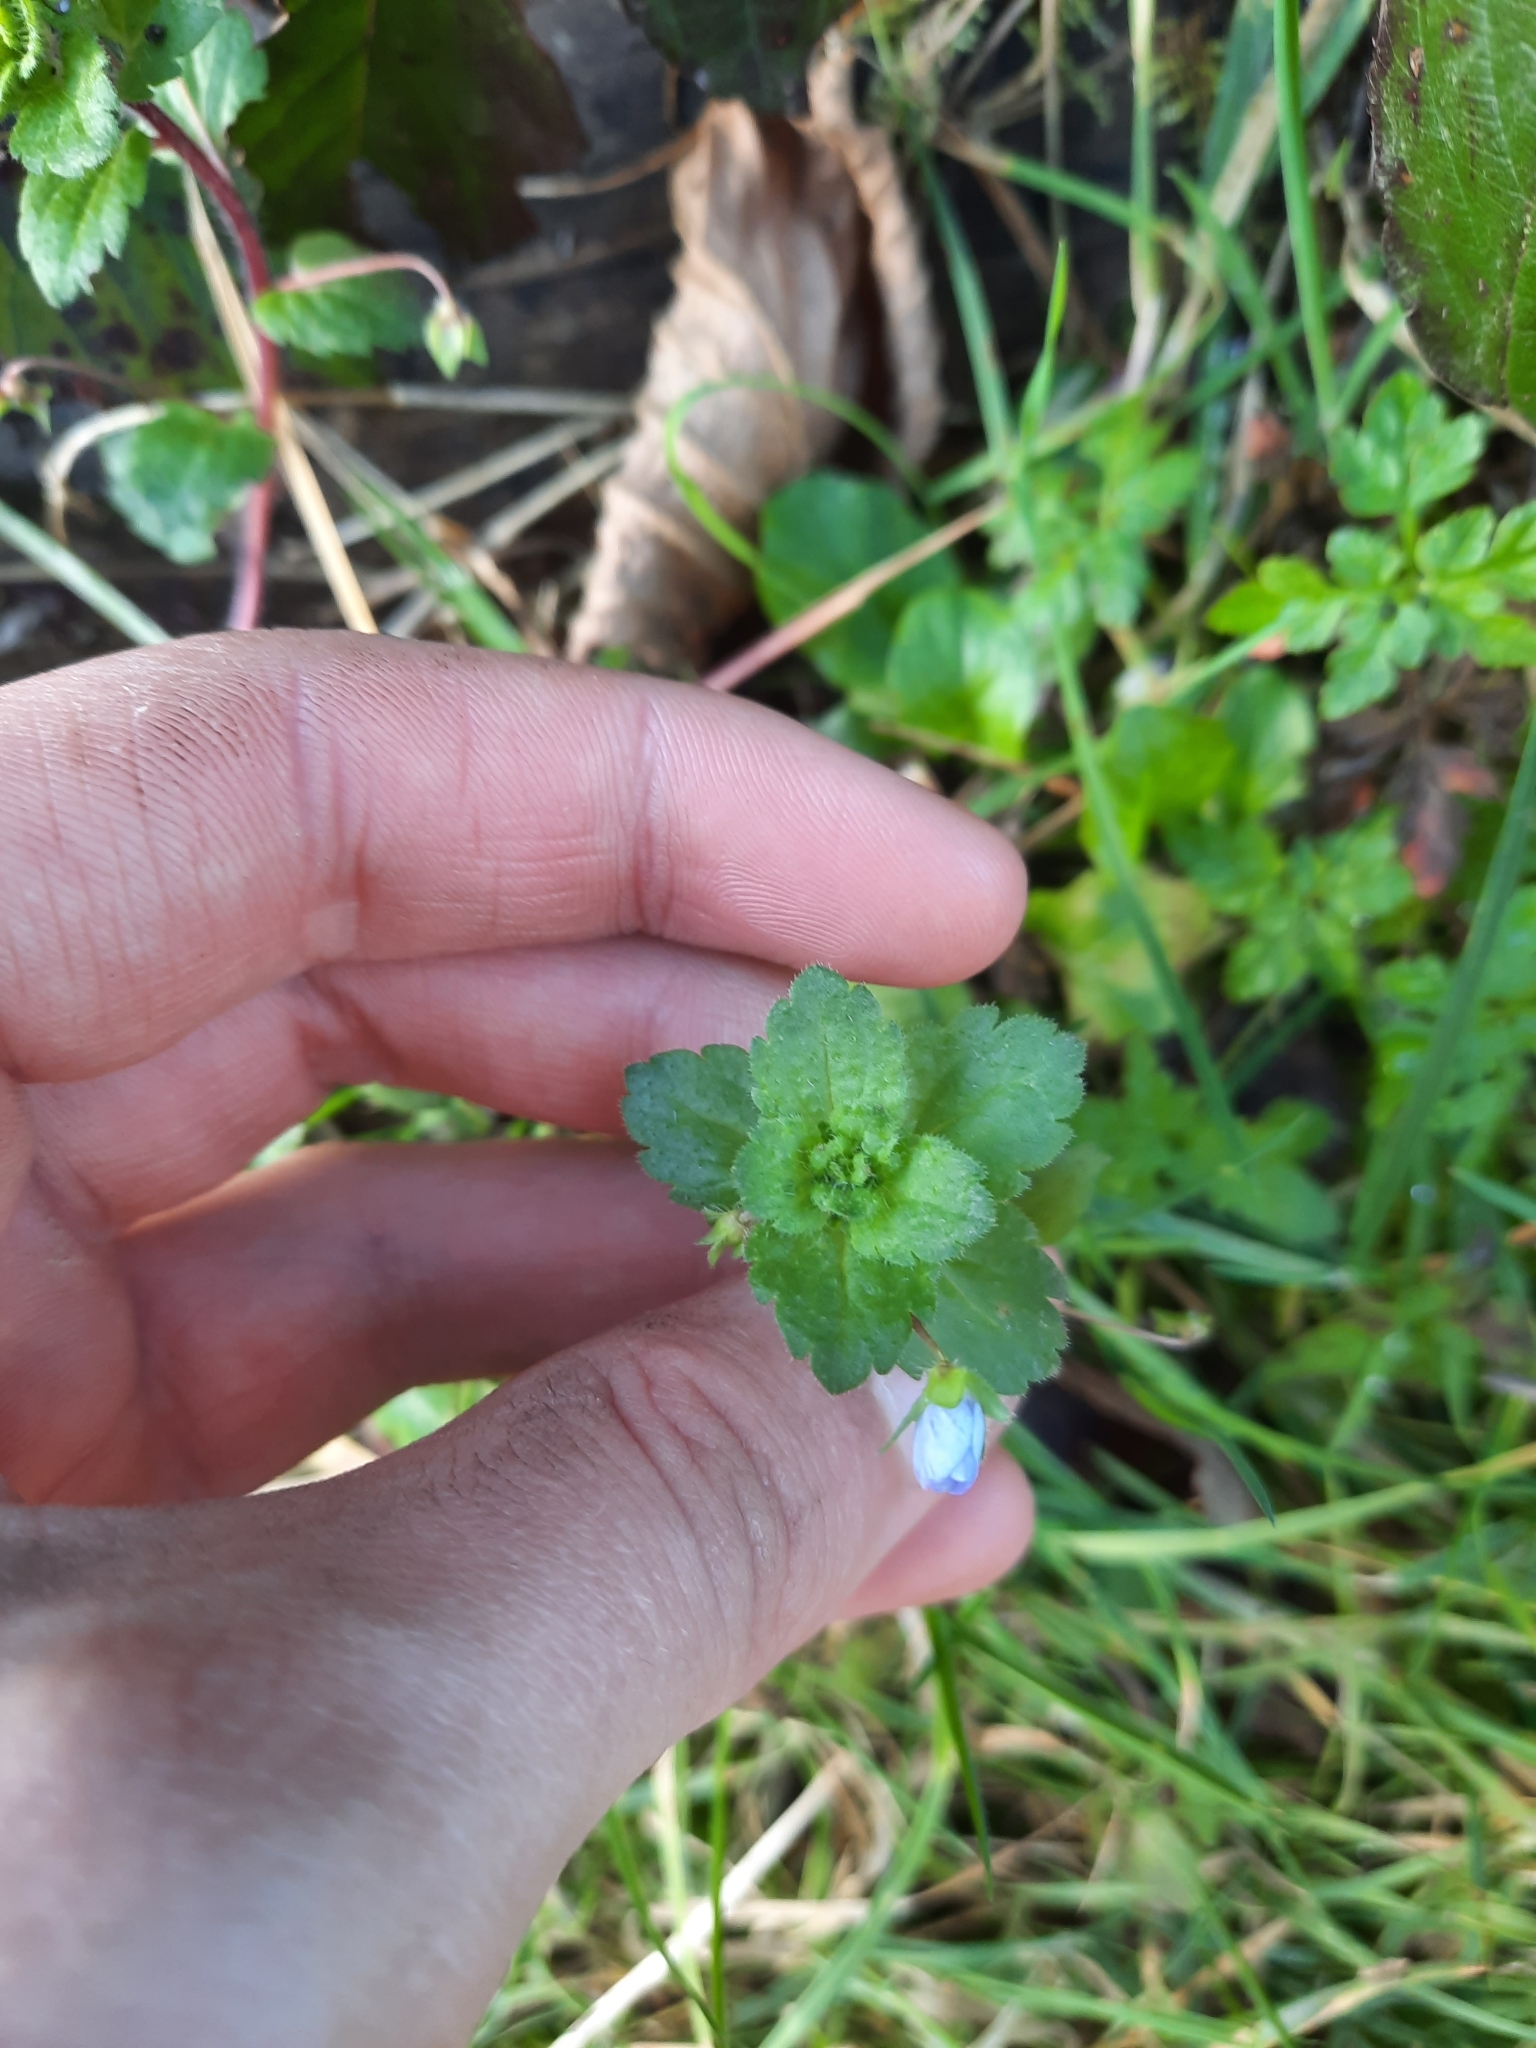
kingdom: Plantae
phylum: Tracheophyta
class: Magnoliopsida
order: Lamiales
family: Plantaginaceae
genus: Veronica
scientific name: Veronica persica
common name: Common field-speedwell
